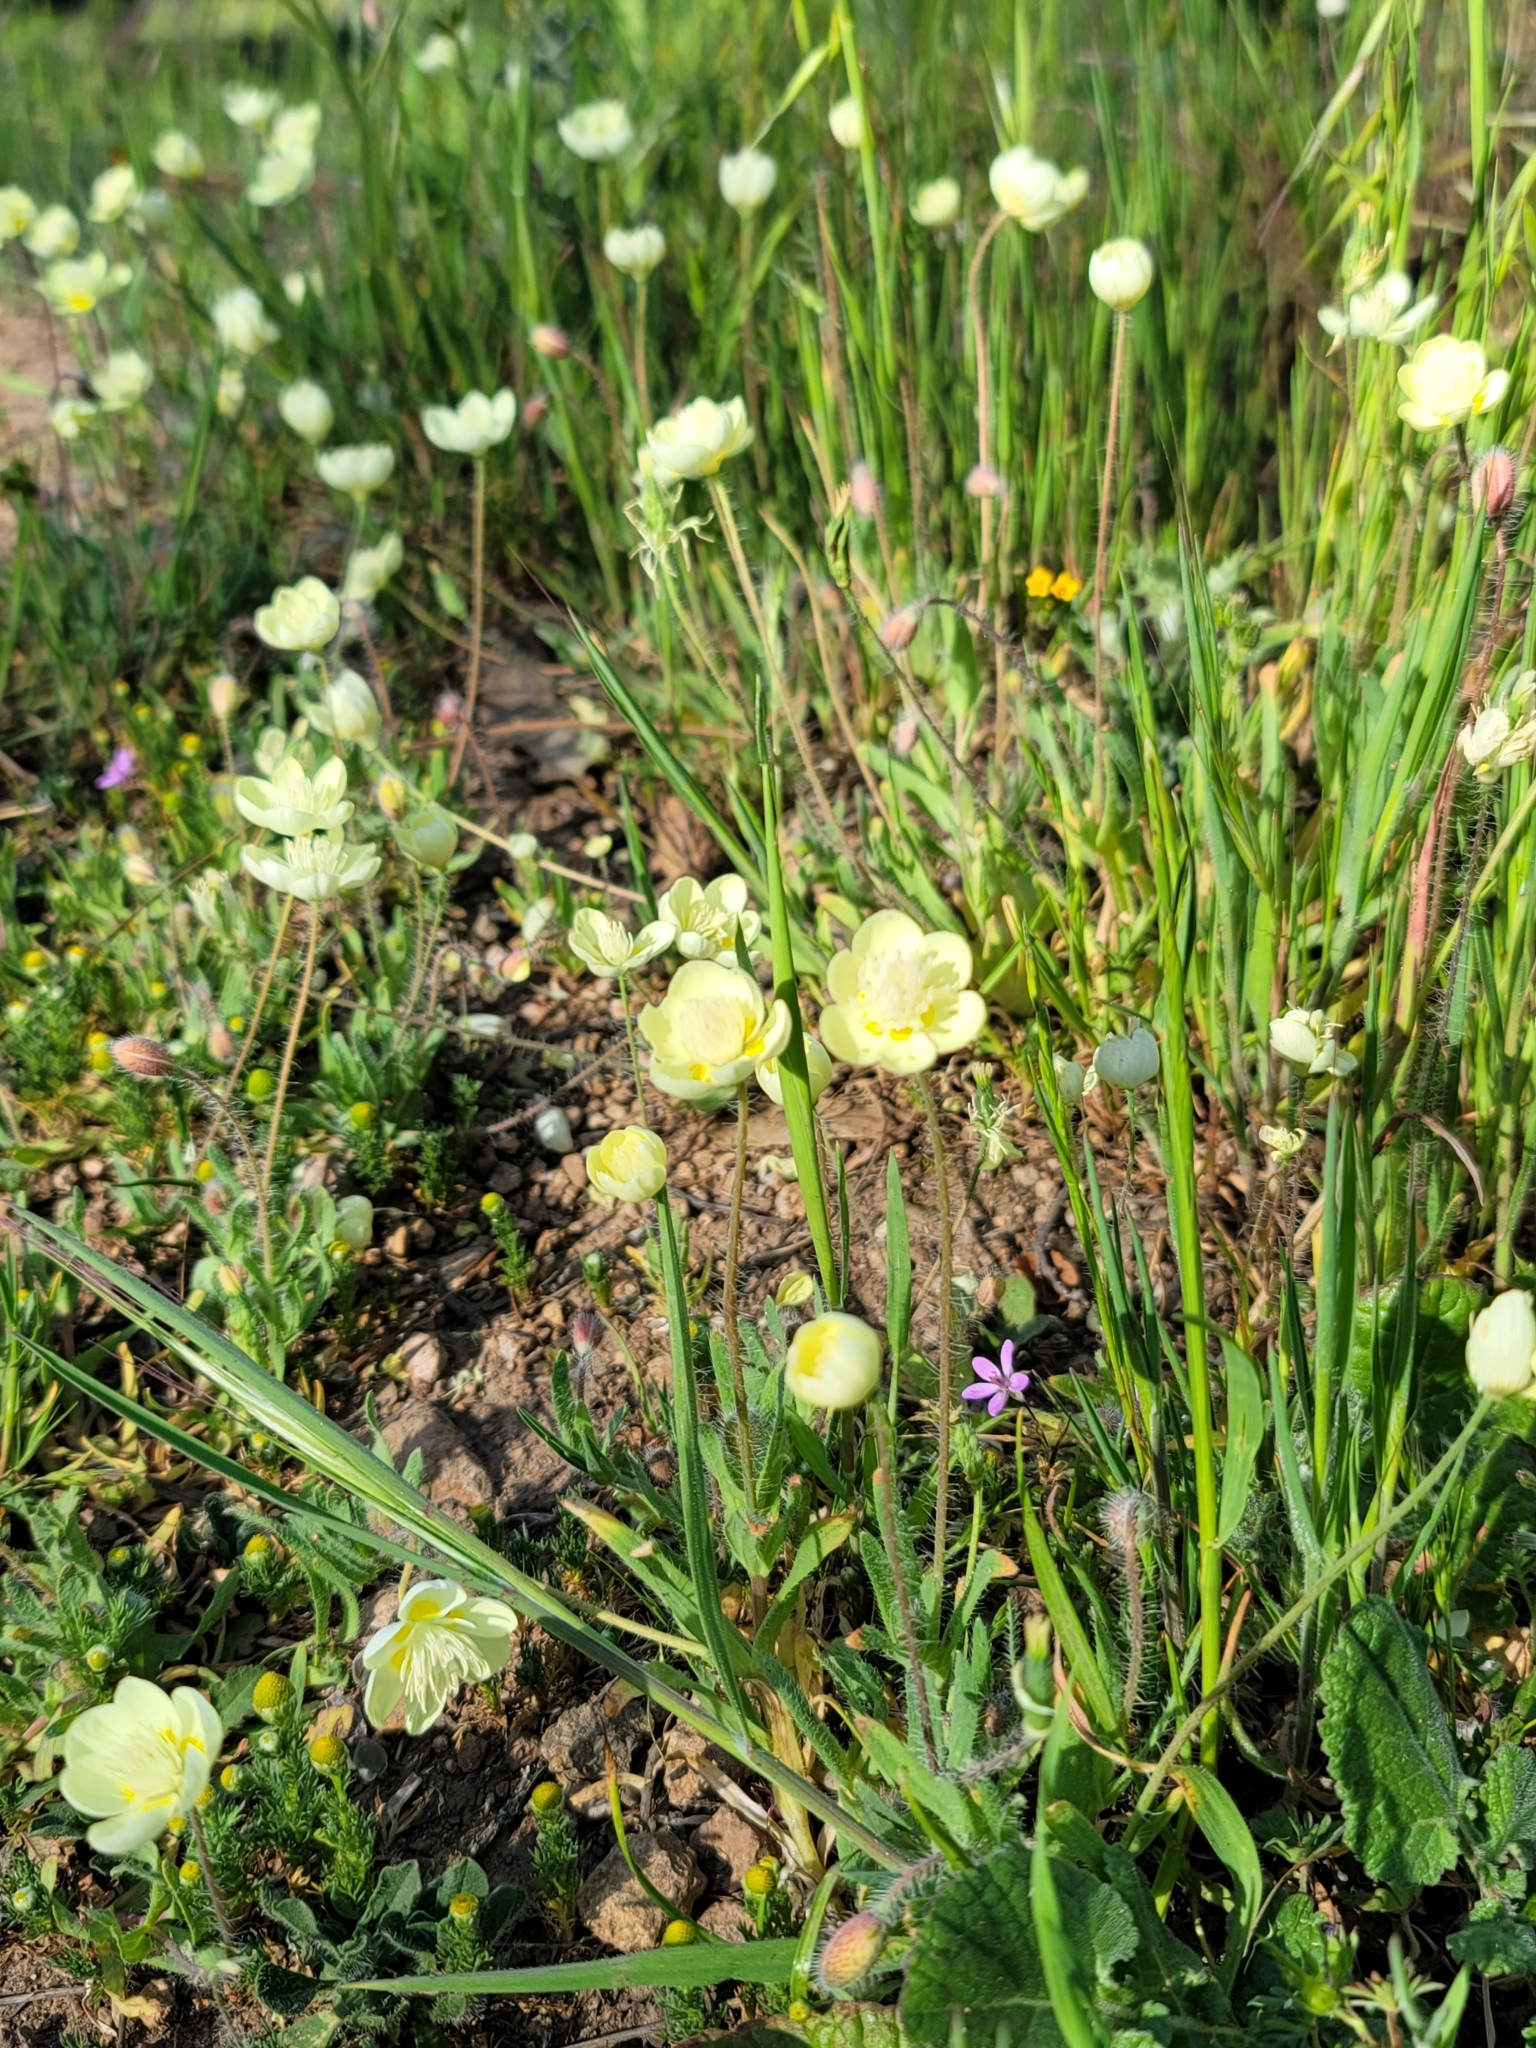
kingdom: Plantae
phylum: Tracheophyta
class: Magnoliopsida
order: Ranunculales
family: Papaveraceae
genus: Platystemon
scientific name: Platystemon californicus
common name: Cream-cups
